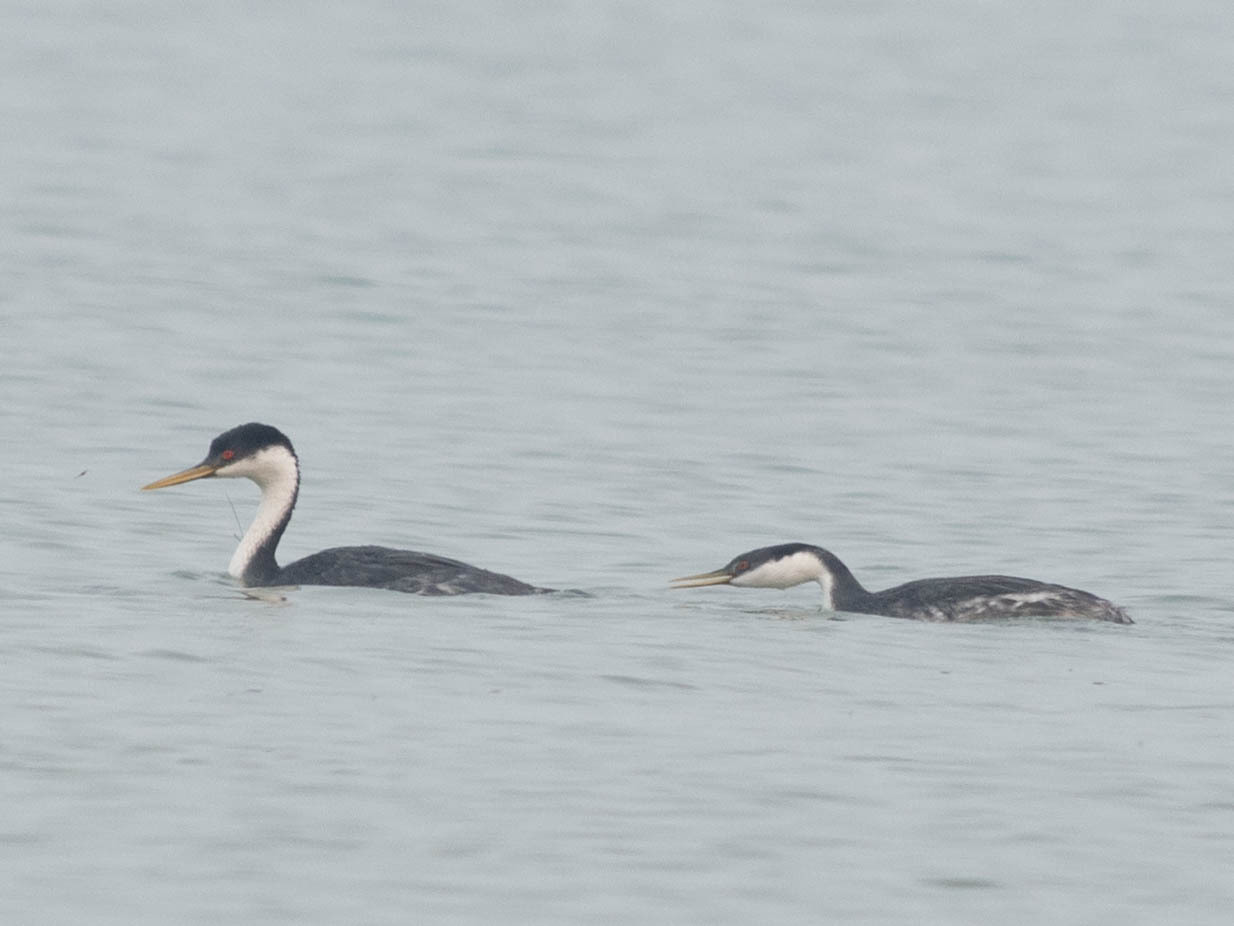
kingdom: Animalia
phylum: Chordata
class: Aves
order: Podicipediformes
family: Podicipedidae
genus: Aechmophorus
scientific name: Aechmophorus occidentalis
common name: Western grebe
